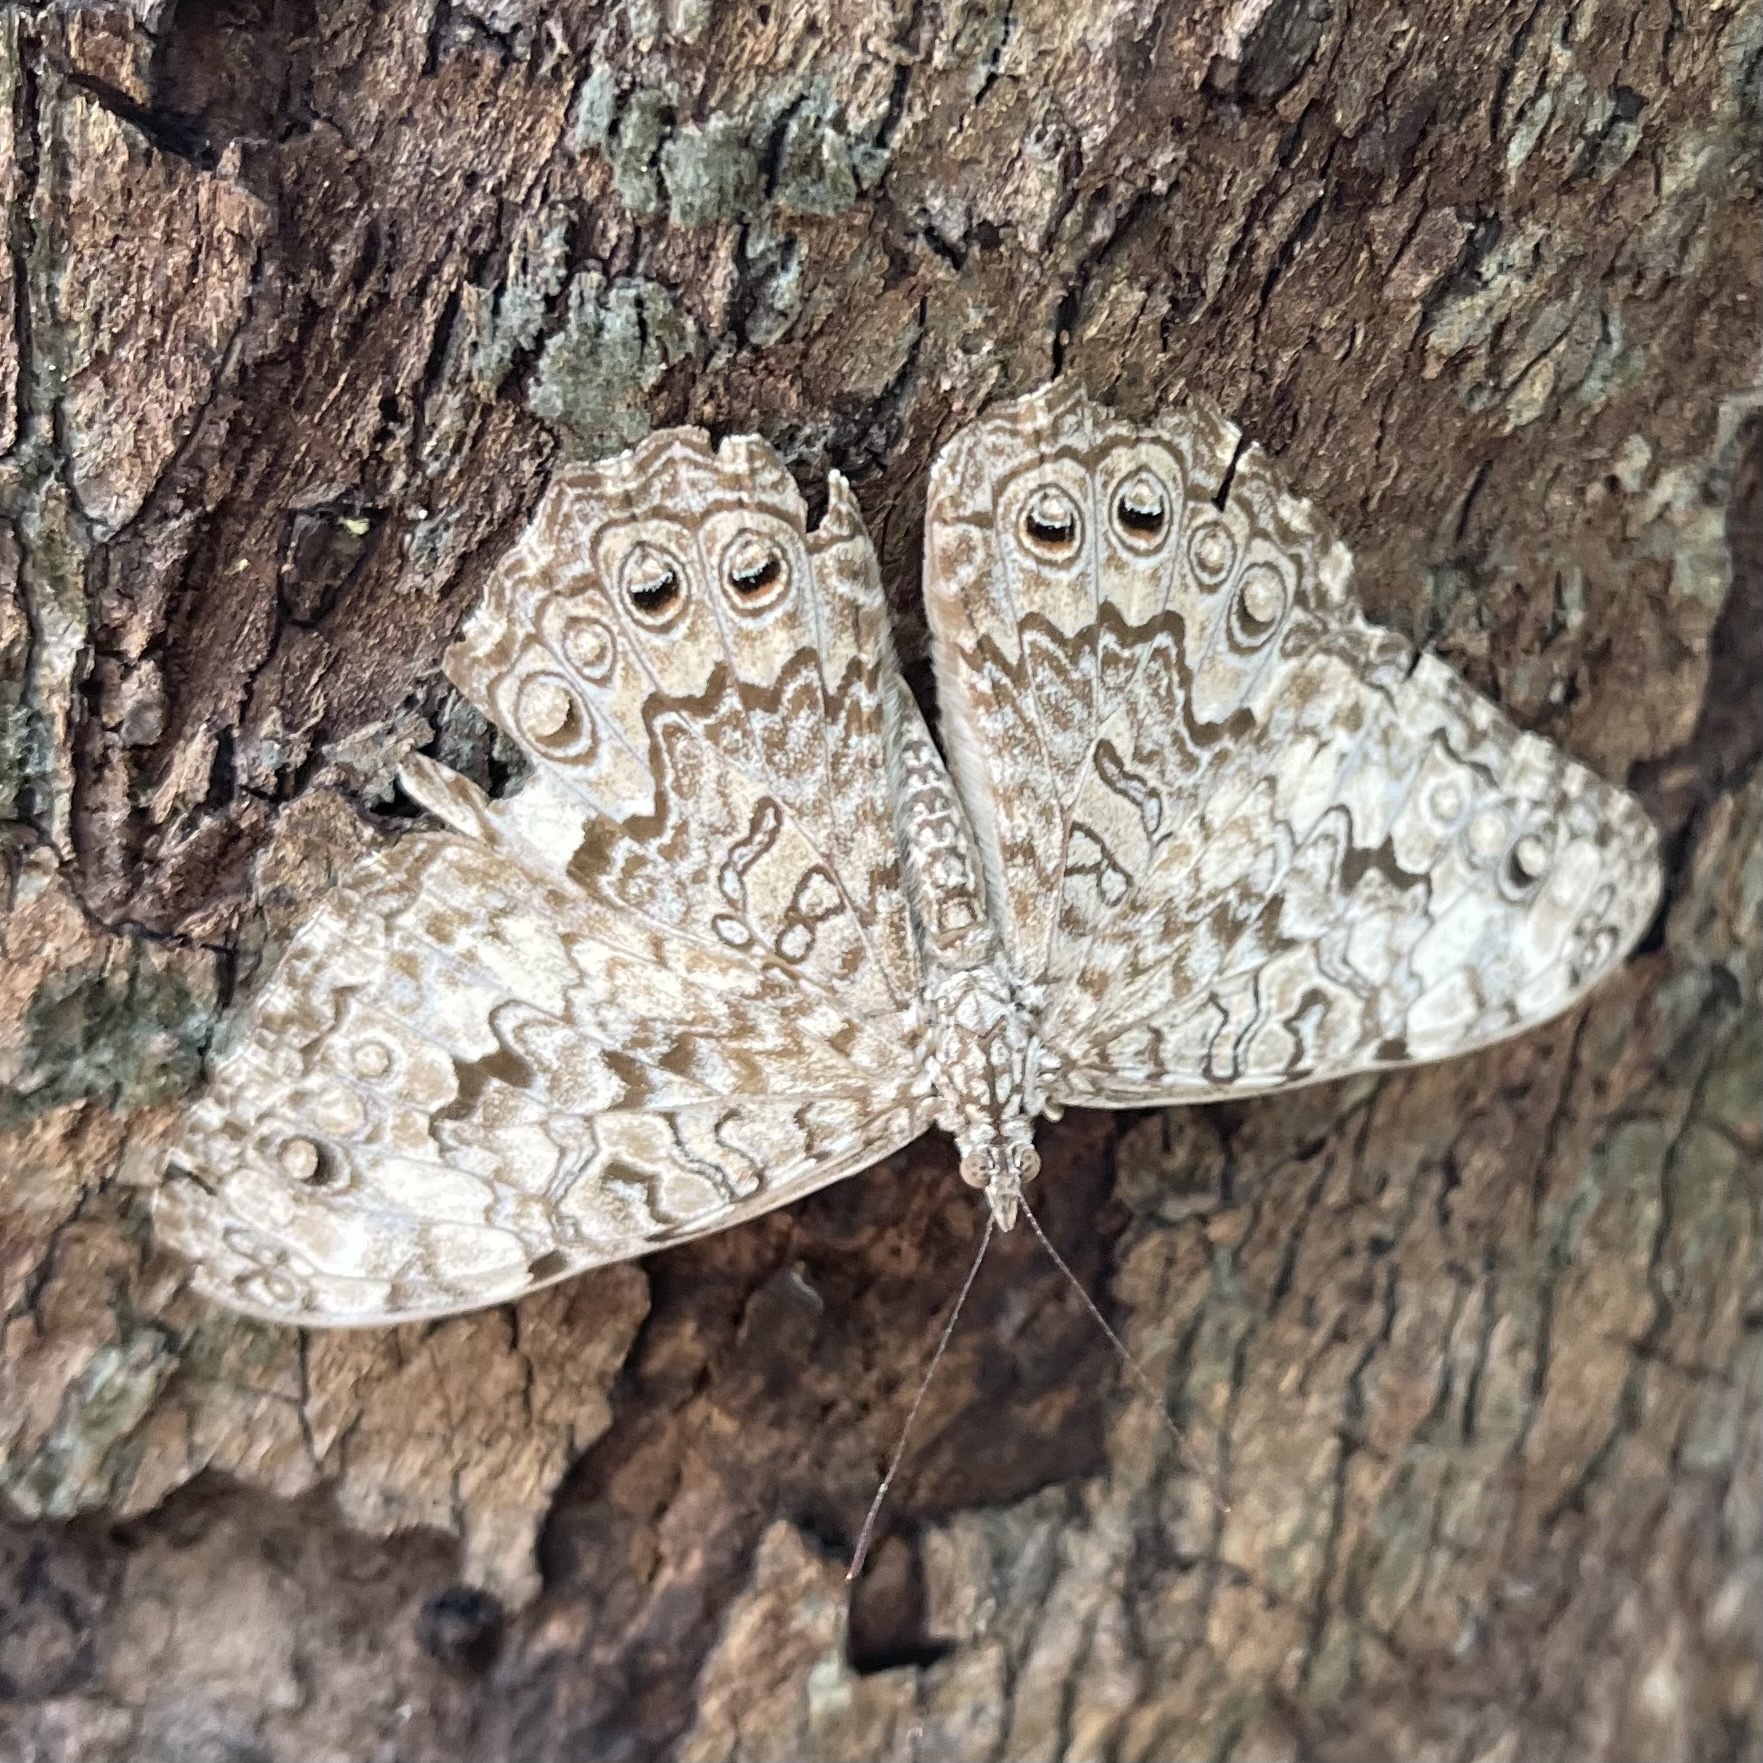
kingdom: Animalia
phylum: Arthropoda
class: Insecta
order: Lepidoptera
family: Nymphalidae
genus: Hamadryas
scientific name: Hamadryas februa
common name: Gray cracker
